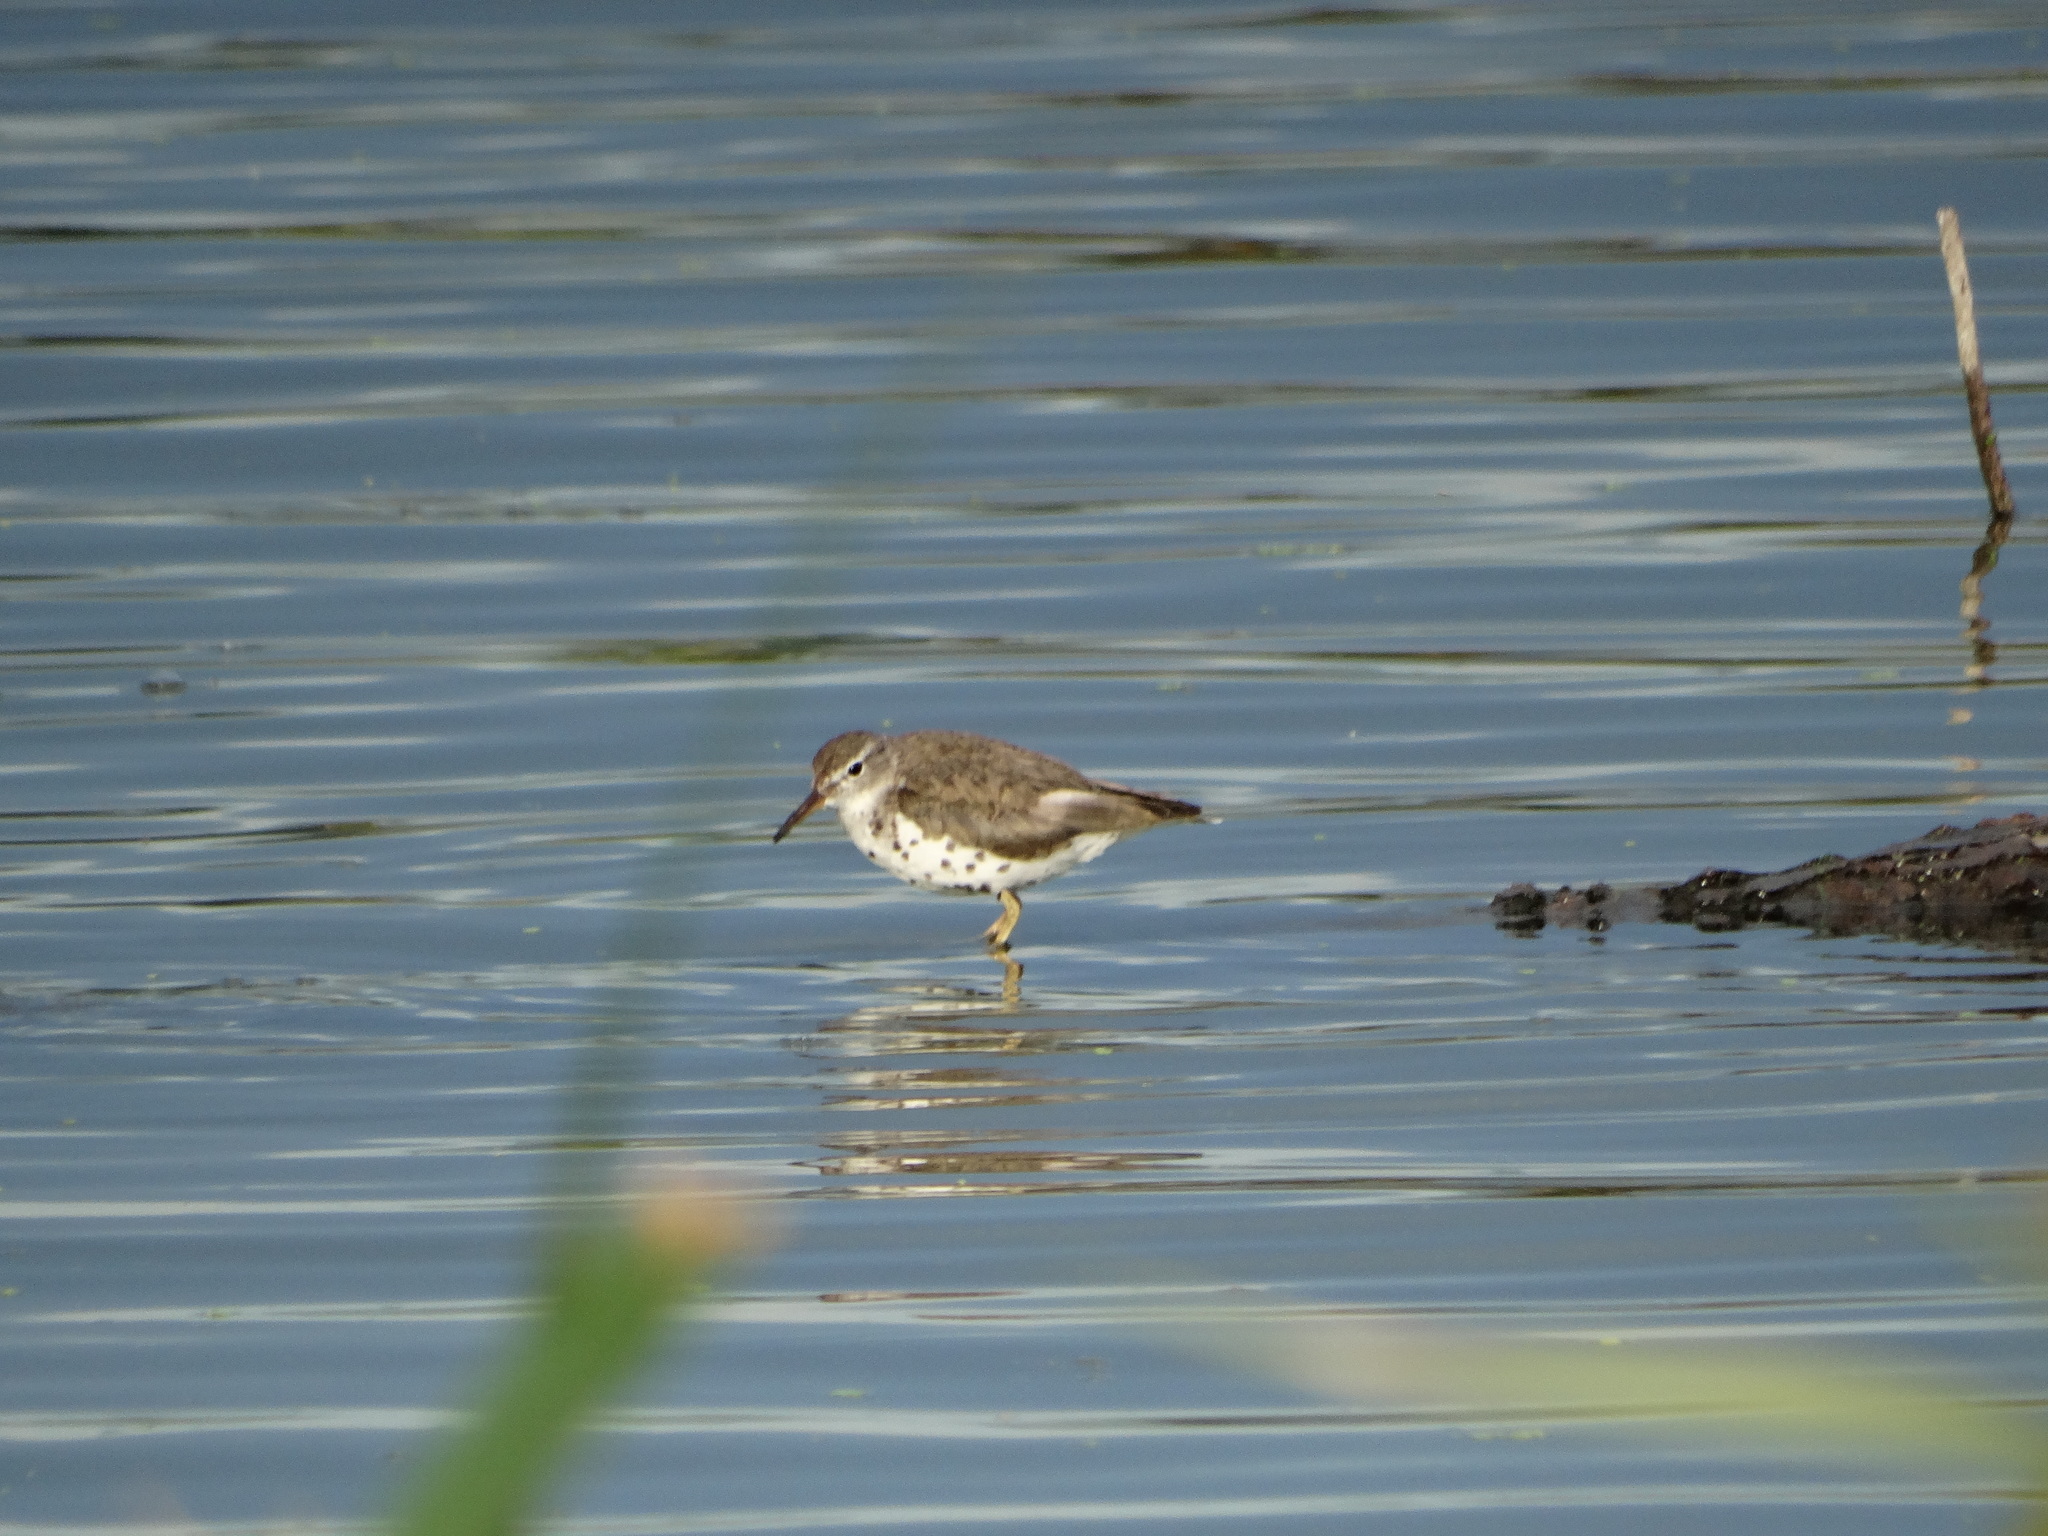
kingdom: Animalia
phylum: Chordata
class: Aves
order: Charadriiformes
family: Scolopacidae
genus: Actitis
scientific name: Actitis macularius
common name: Spotted sandpiper
